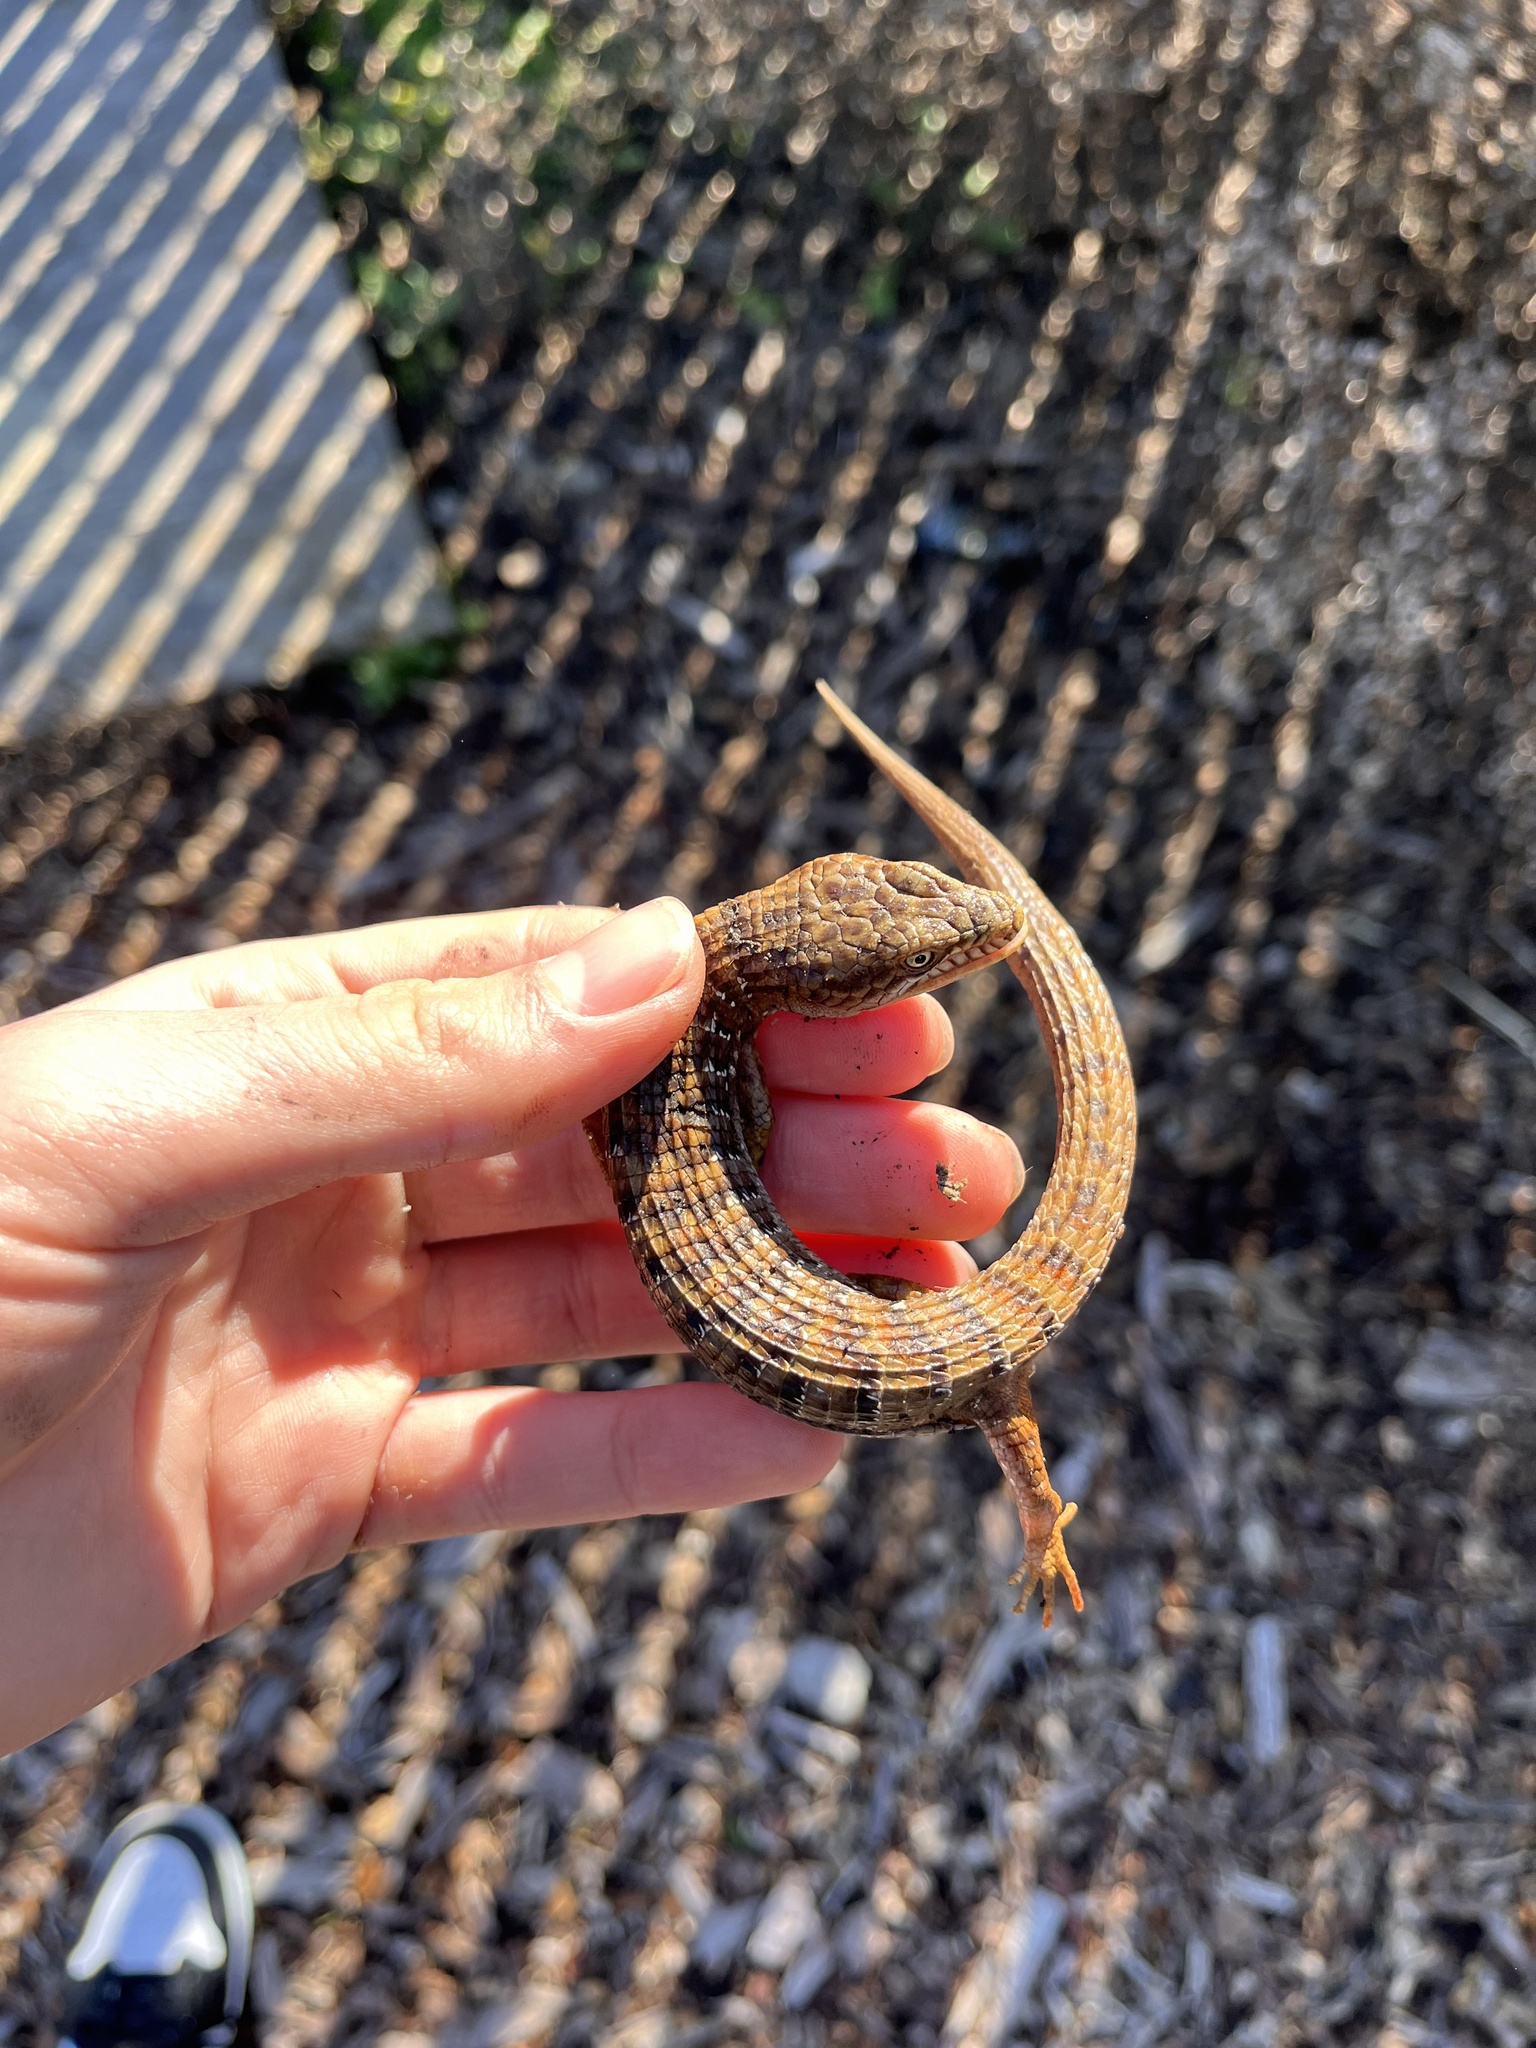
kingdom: Animalia
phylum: Chordata
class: Squamata
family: Anguidae
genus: Elgaria
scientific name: Elgaria multicarinata
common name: Southern alligator lizard
